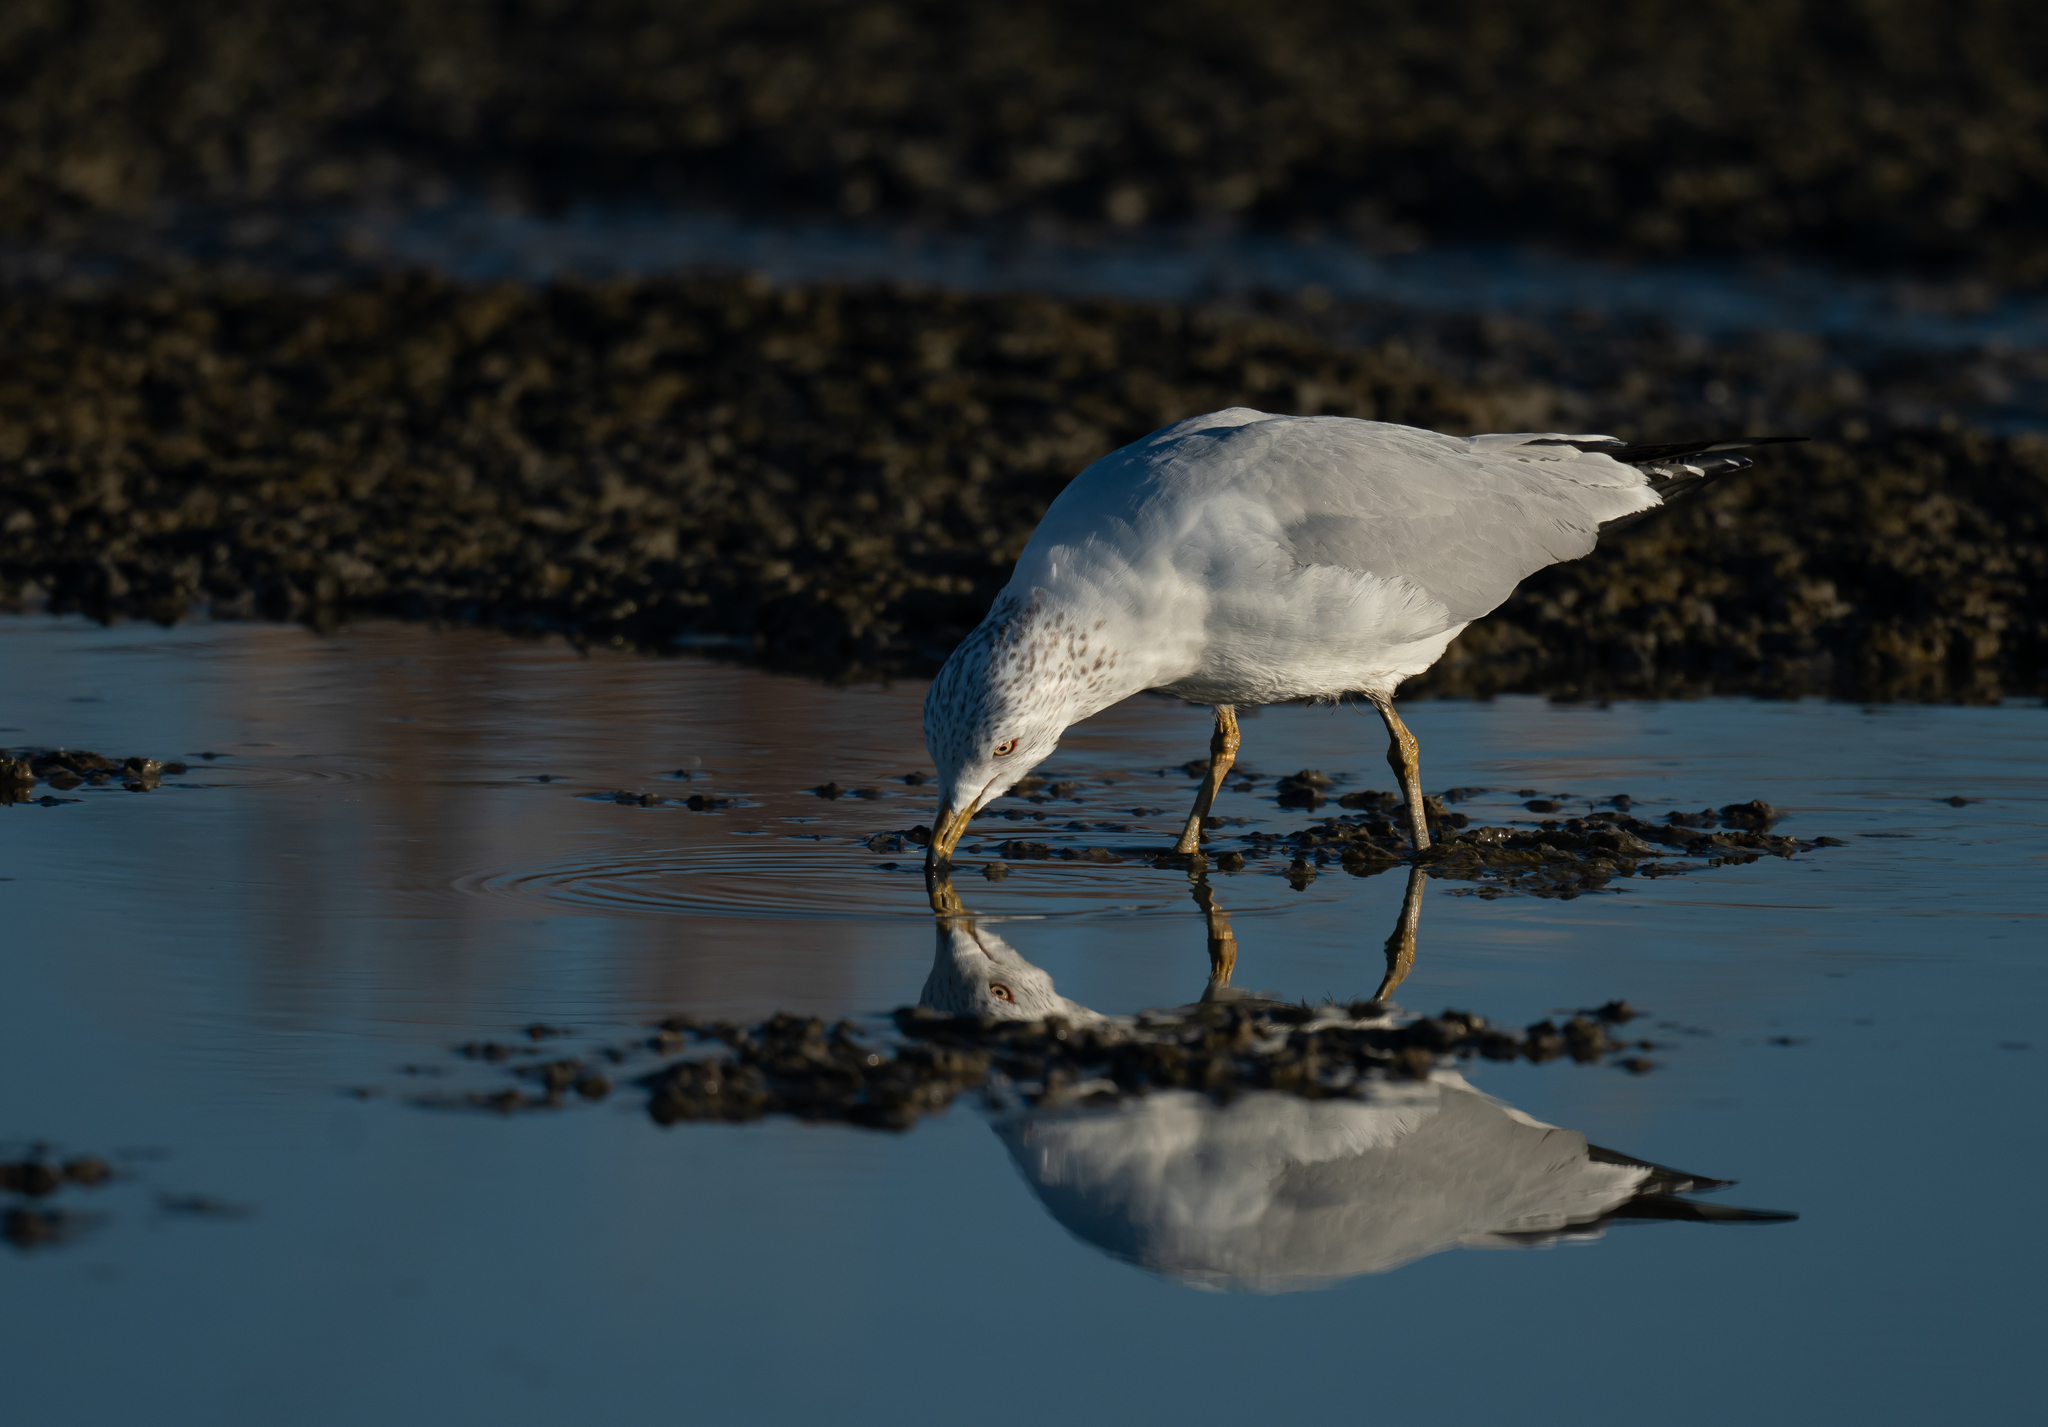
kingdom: Animalia
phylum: Chordata
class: Aves
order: Charadriiformes
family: Laridae
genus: Larus
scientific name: Larus delawarensis
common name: Ring-billed gull
